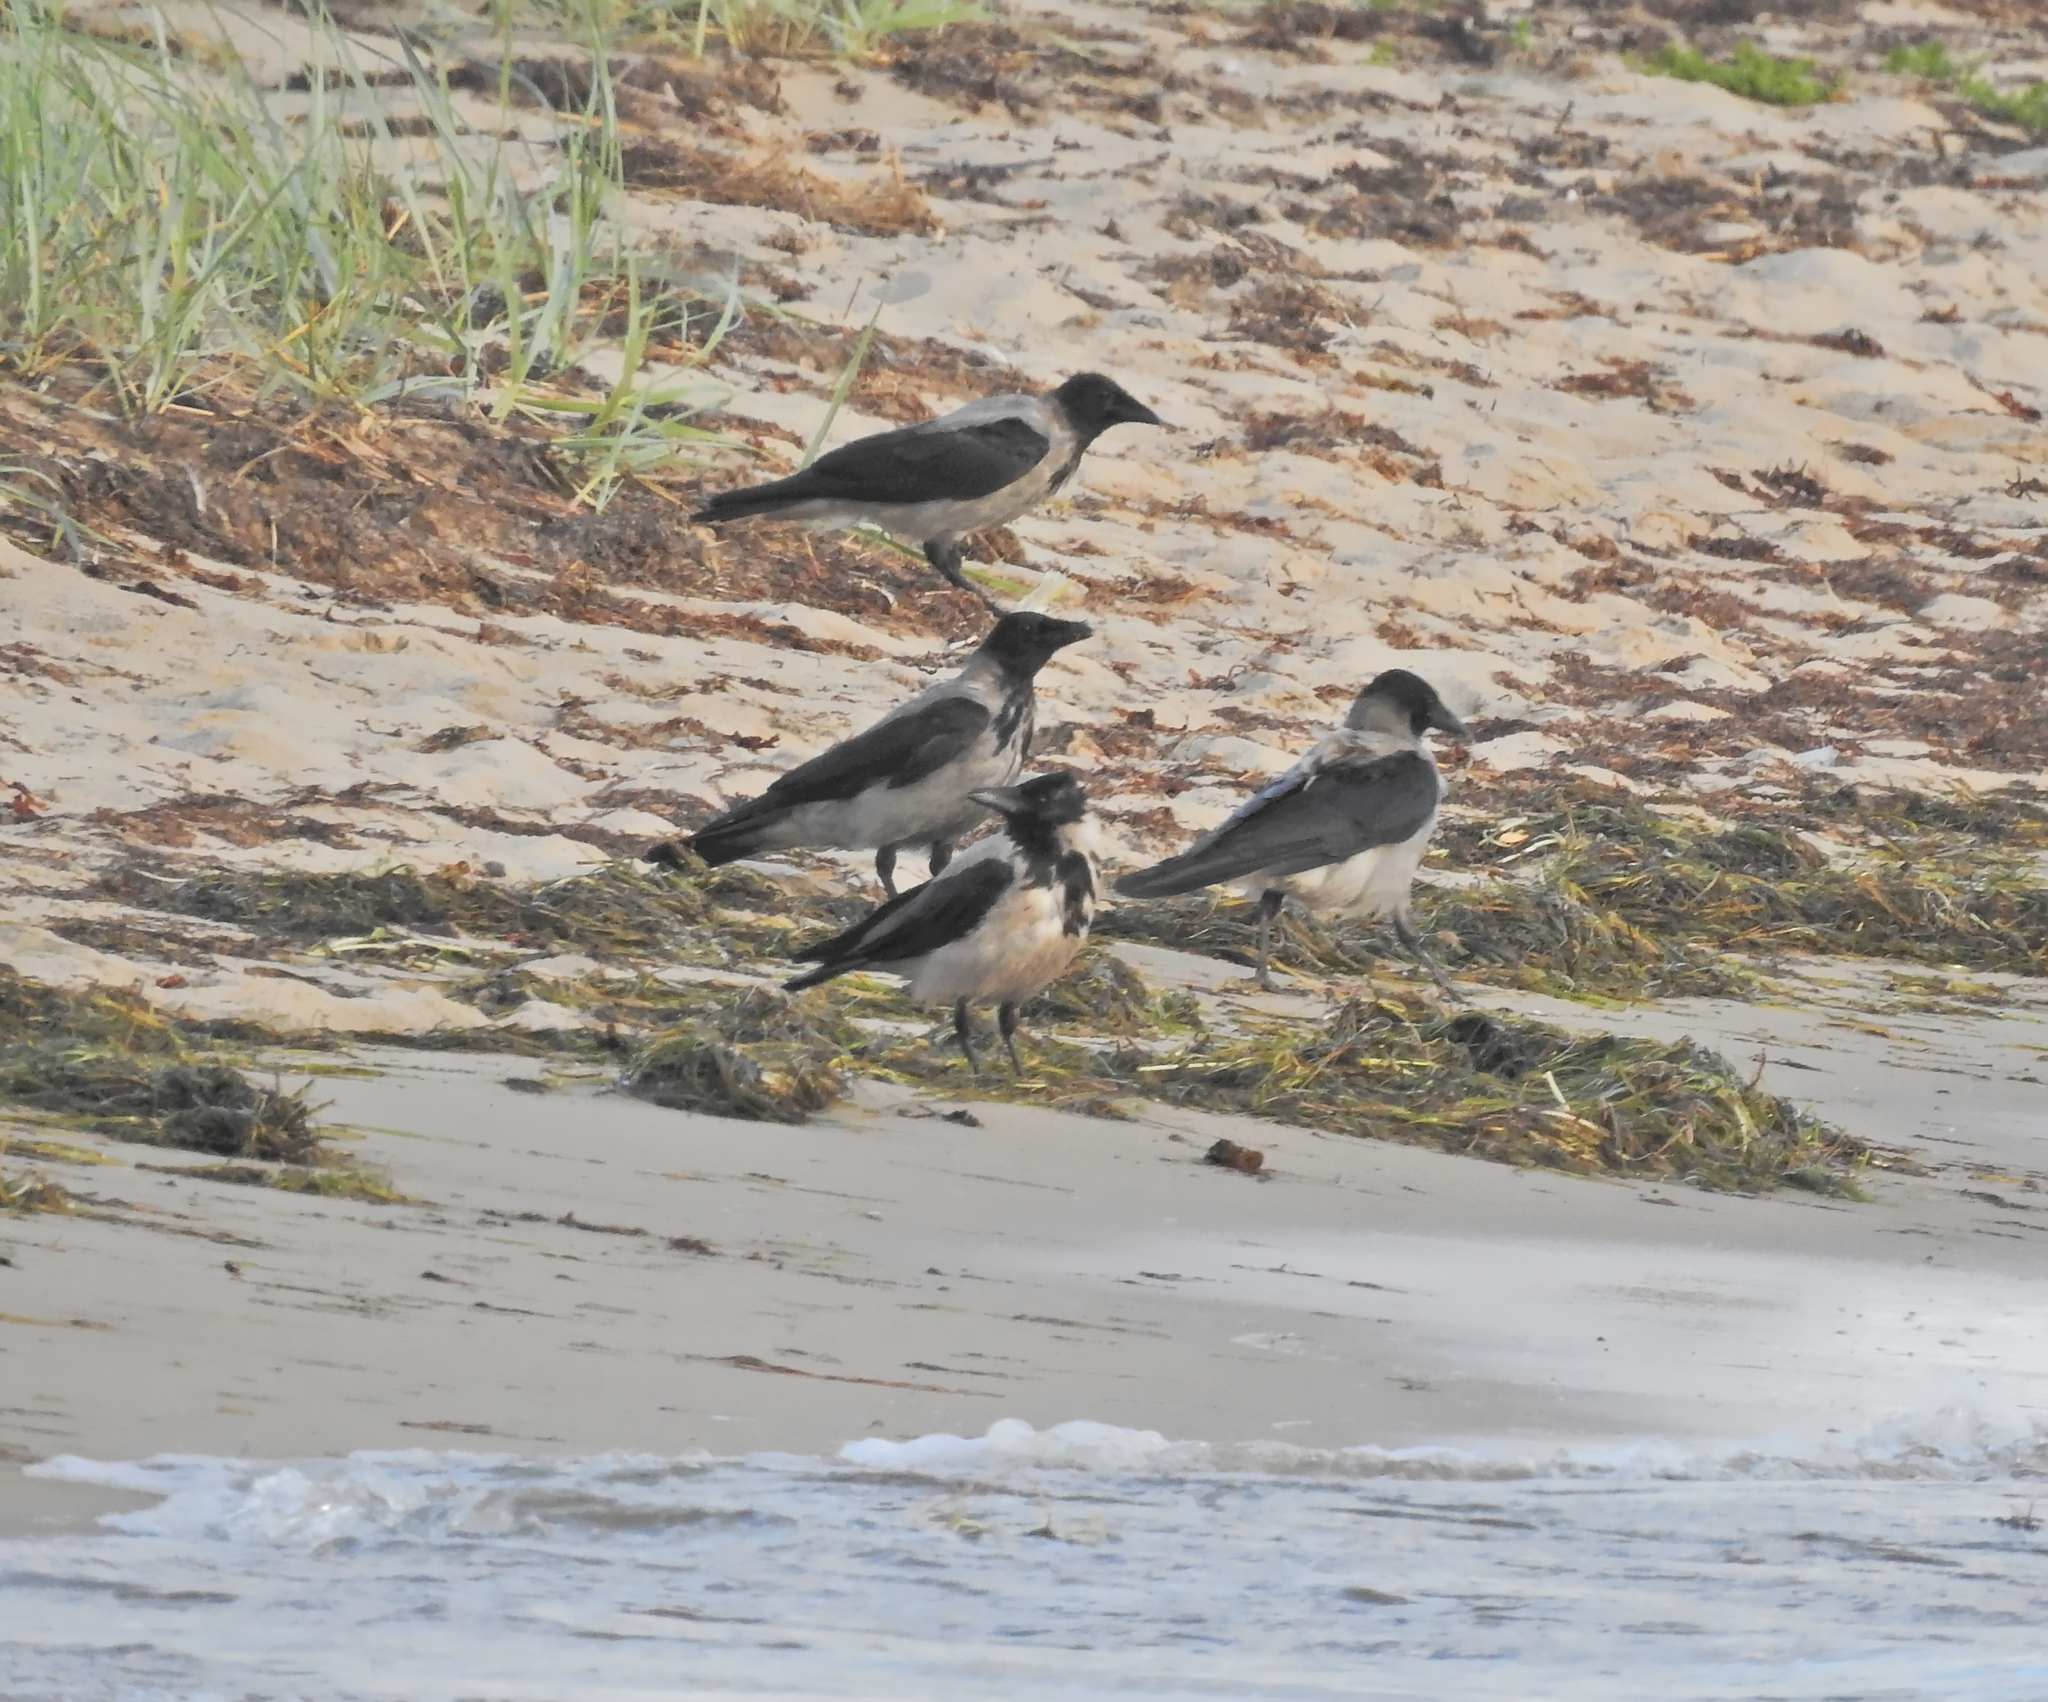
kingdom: Animalia
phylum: Chordata
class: Aves
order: Passeriformes
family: Corvidae
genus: Corvus
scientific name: Corvus cornix
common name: Hooded crow
